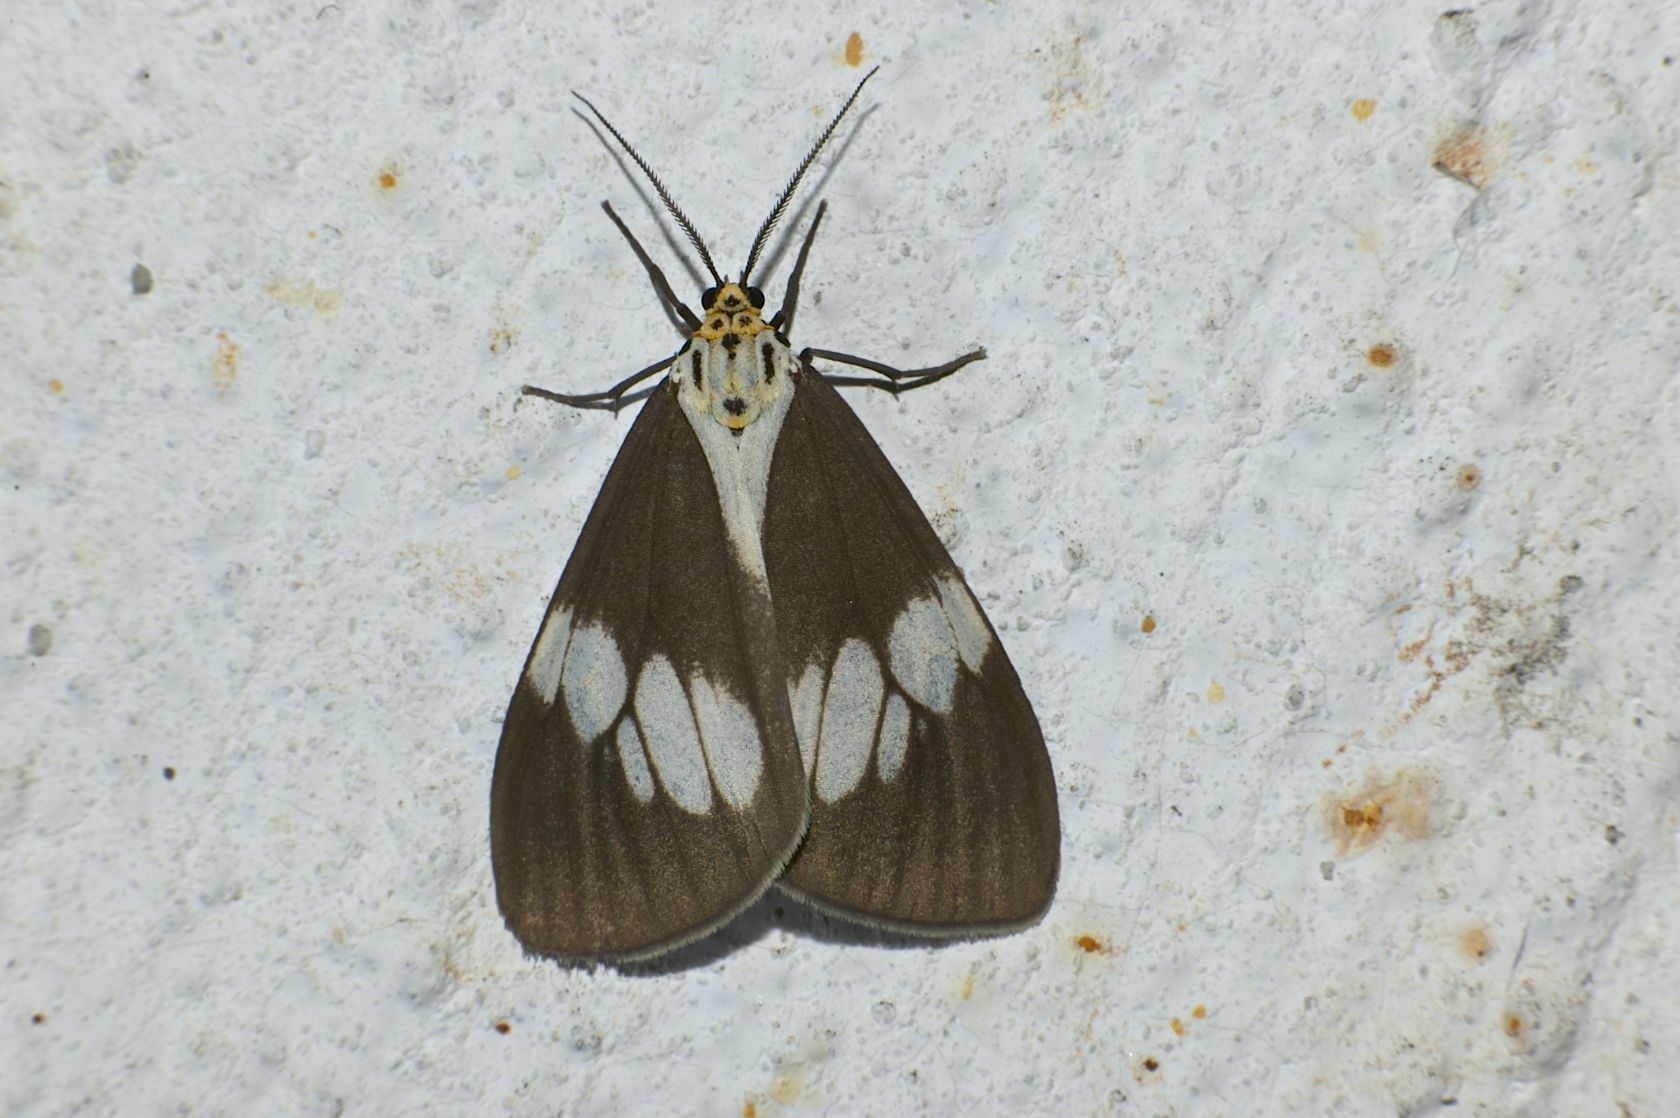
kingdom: Animalia
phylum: Arthropoda
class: Insecta
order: Lepidoptera
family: Erebidae
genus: Nyctemera
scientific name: Nyctemera lacticinia
